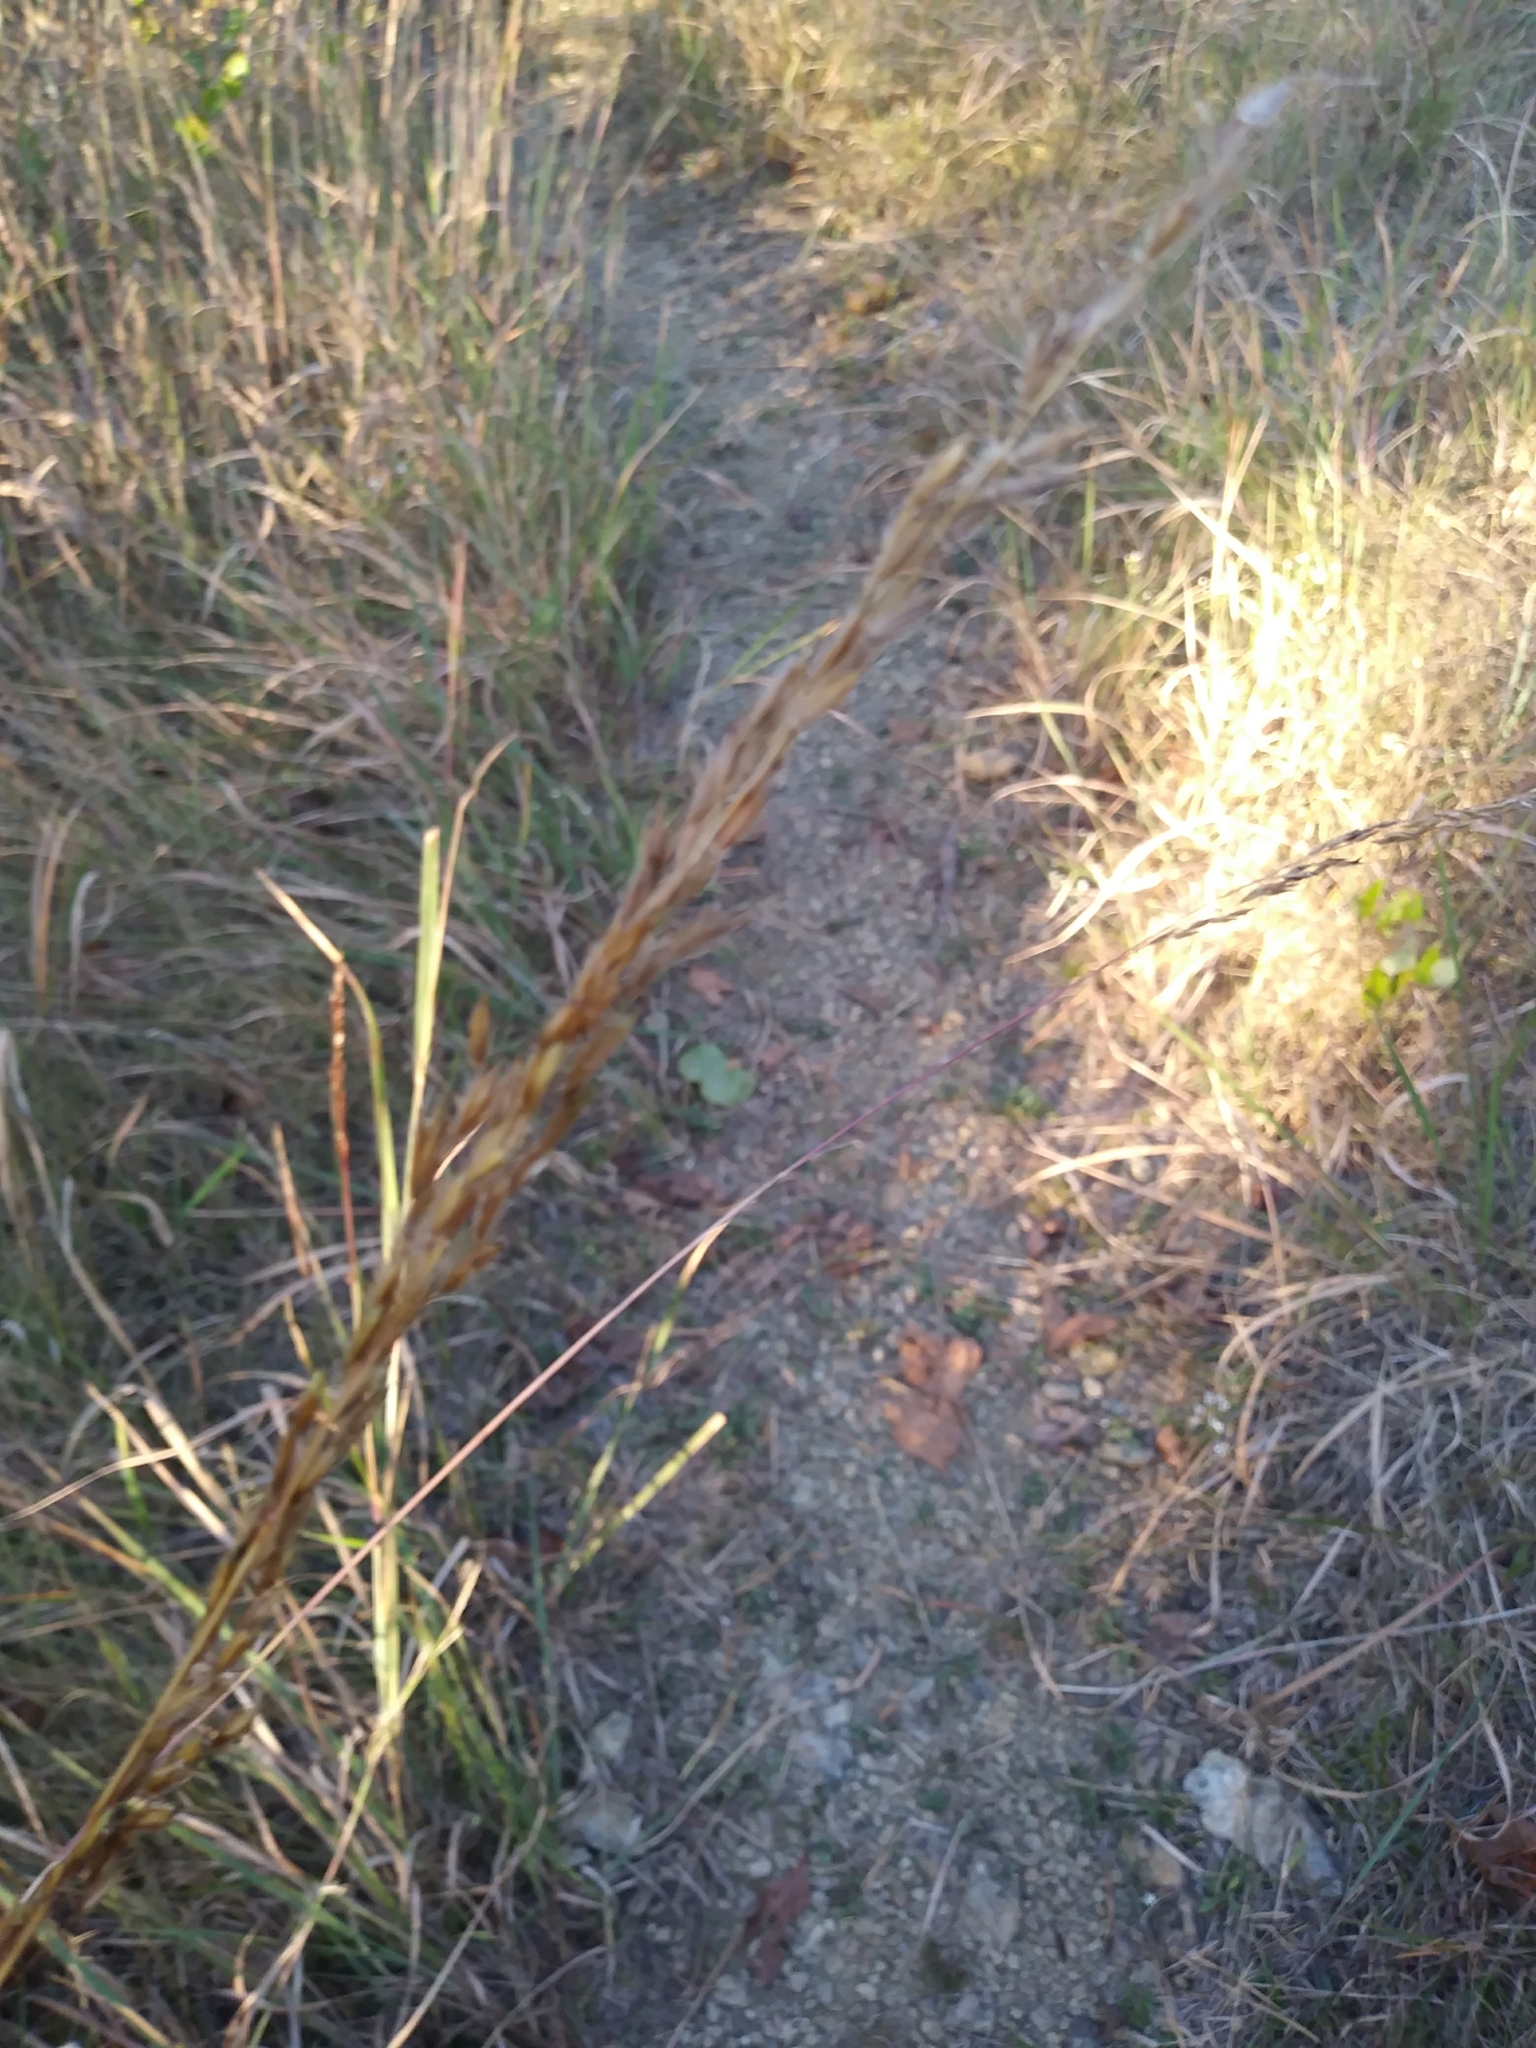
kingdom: Plantae
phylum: Tracheophyta
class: Liliopsida
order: Poales
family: Poaceae
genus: Sorghastrum
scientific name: Sorghastrum nutans
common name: Indian grass
